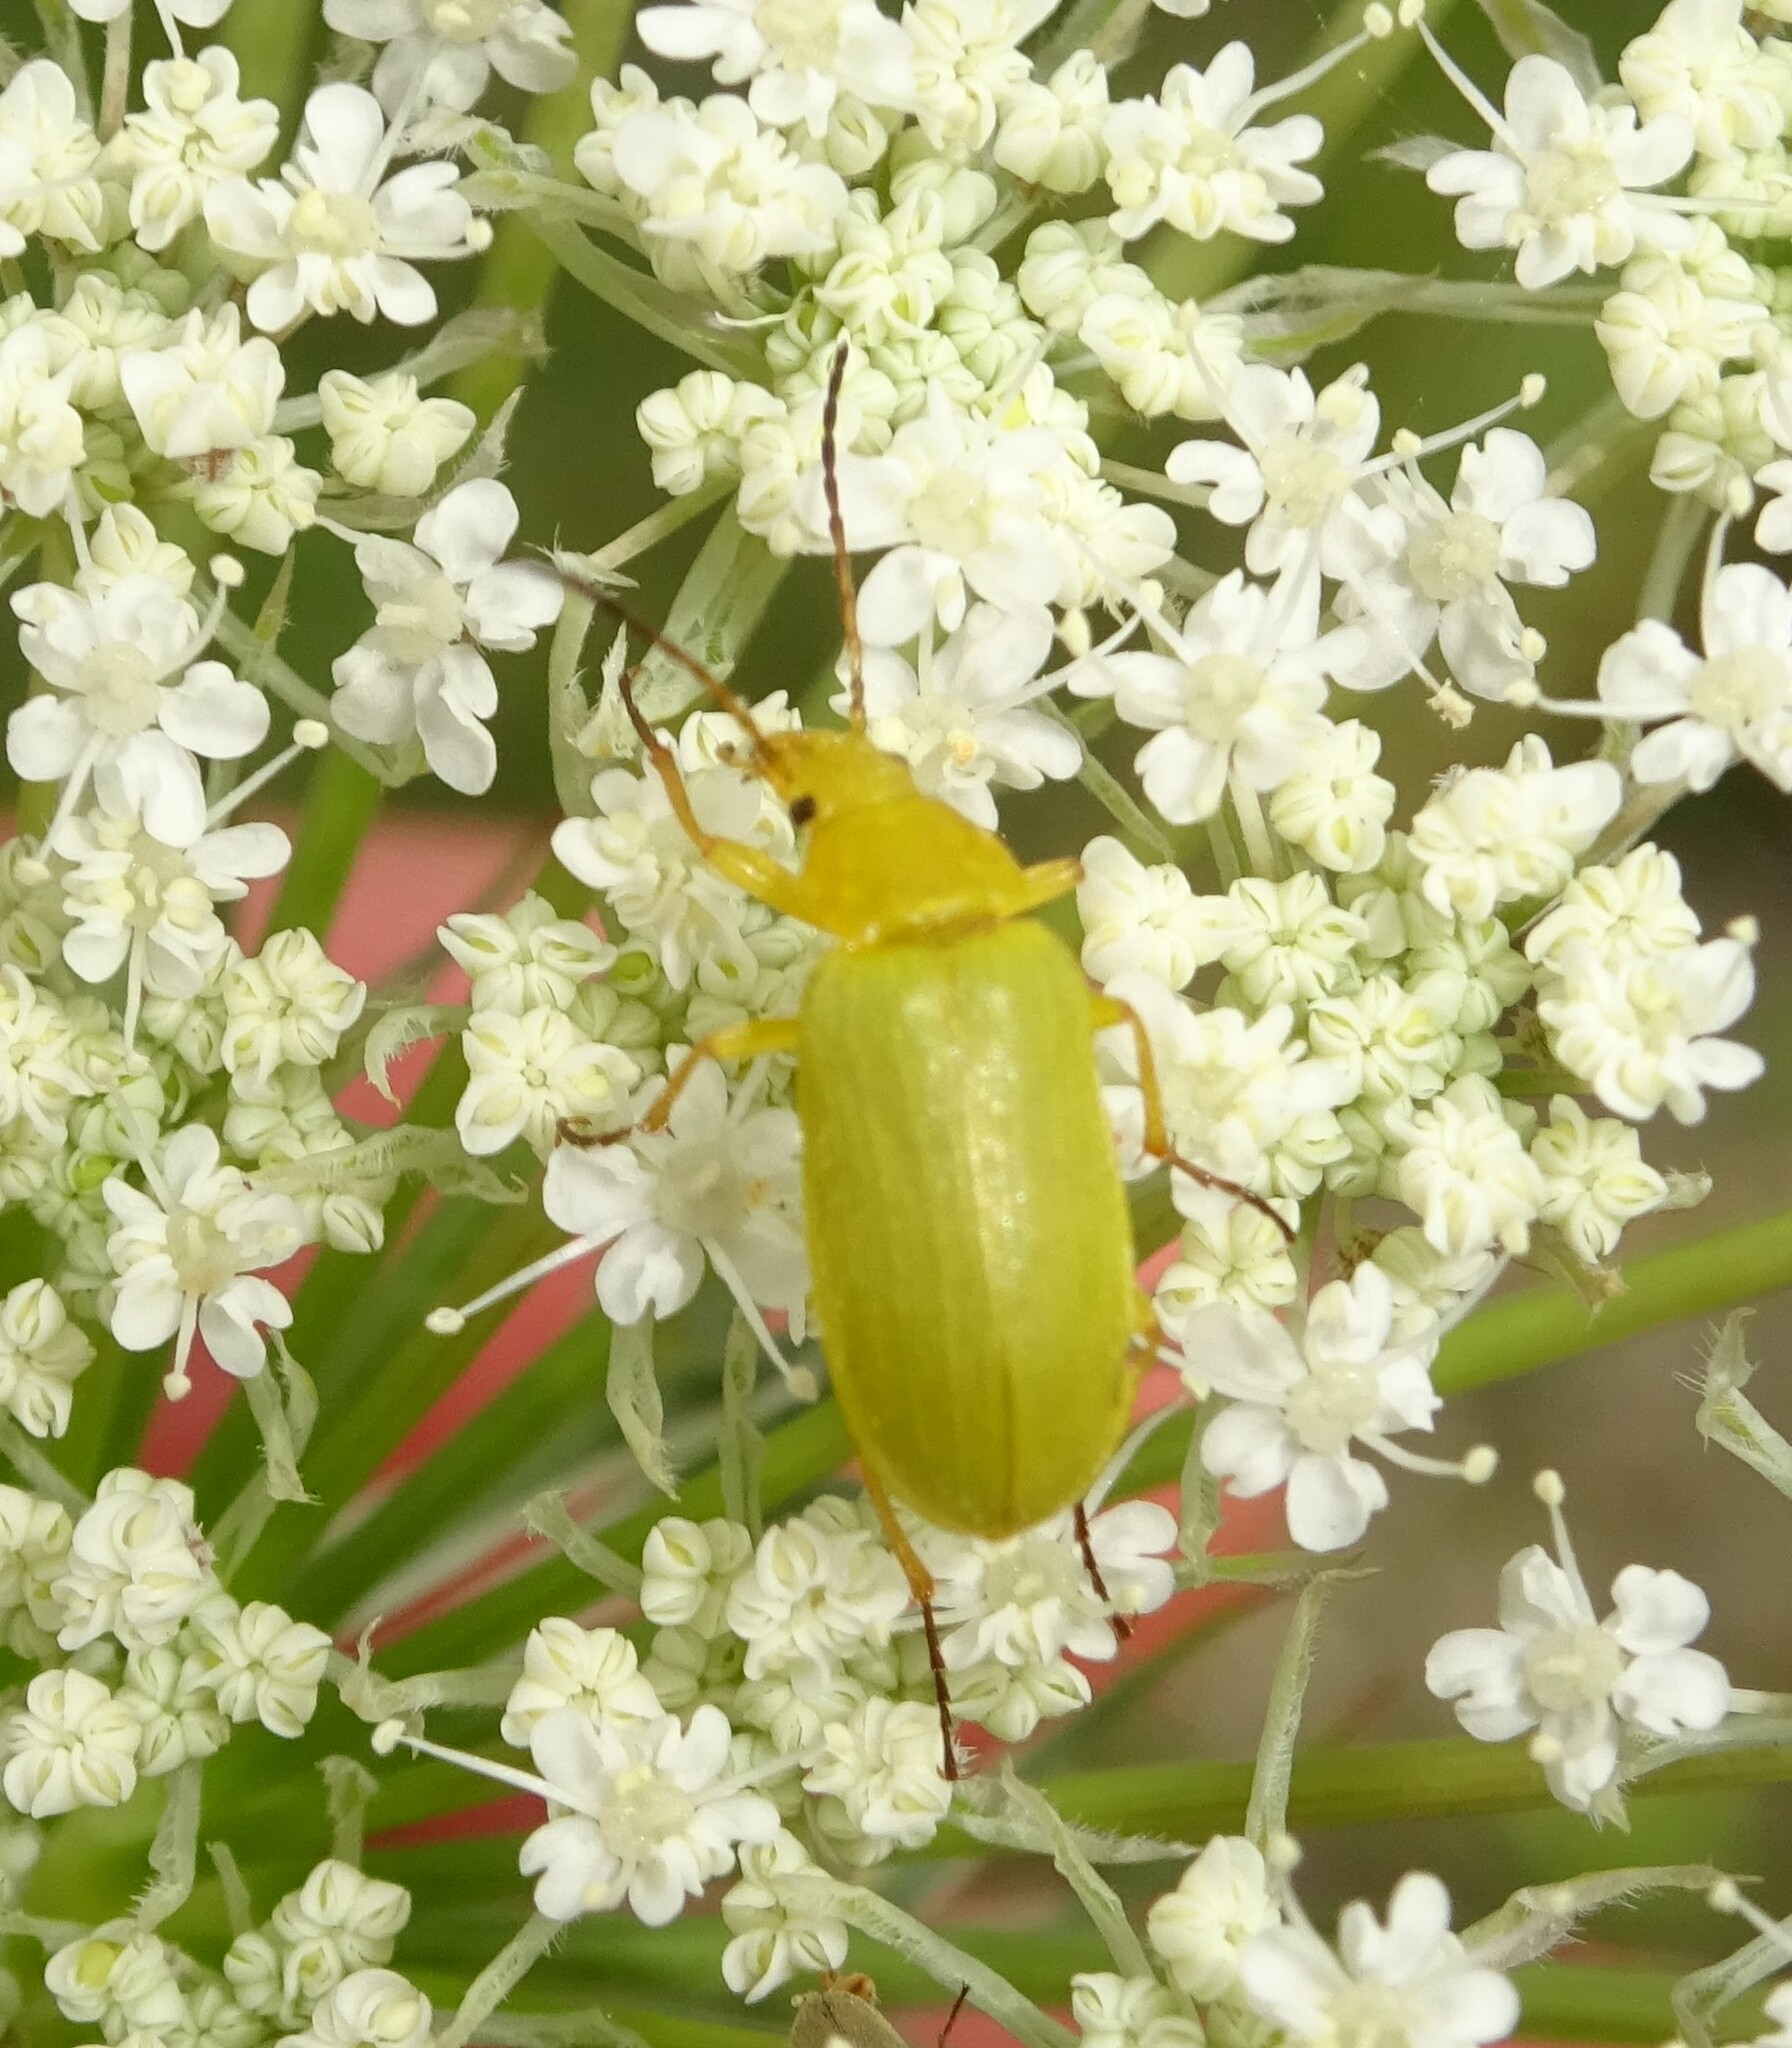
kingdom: Animalia
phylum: Arthropoda
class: Insecta
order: Coleoptera
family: Tenebrionidae
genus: Cteniopus
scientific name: Cteniopus sulphureus
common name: Sulphur beetle
